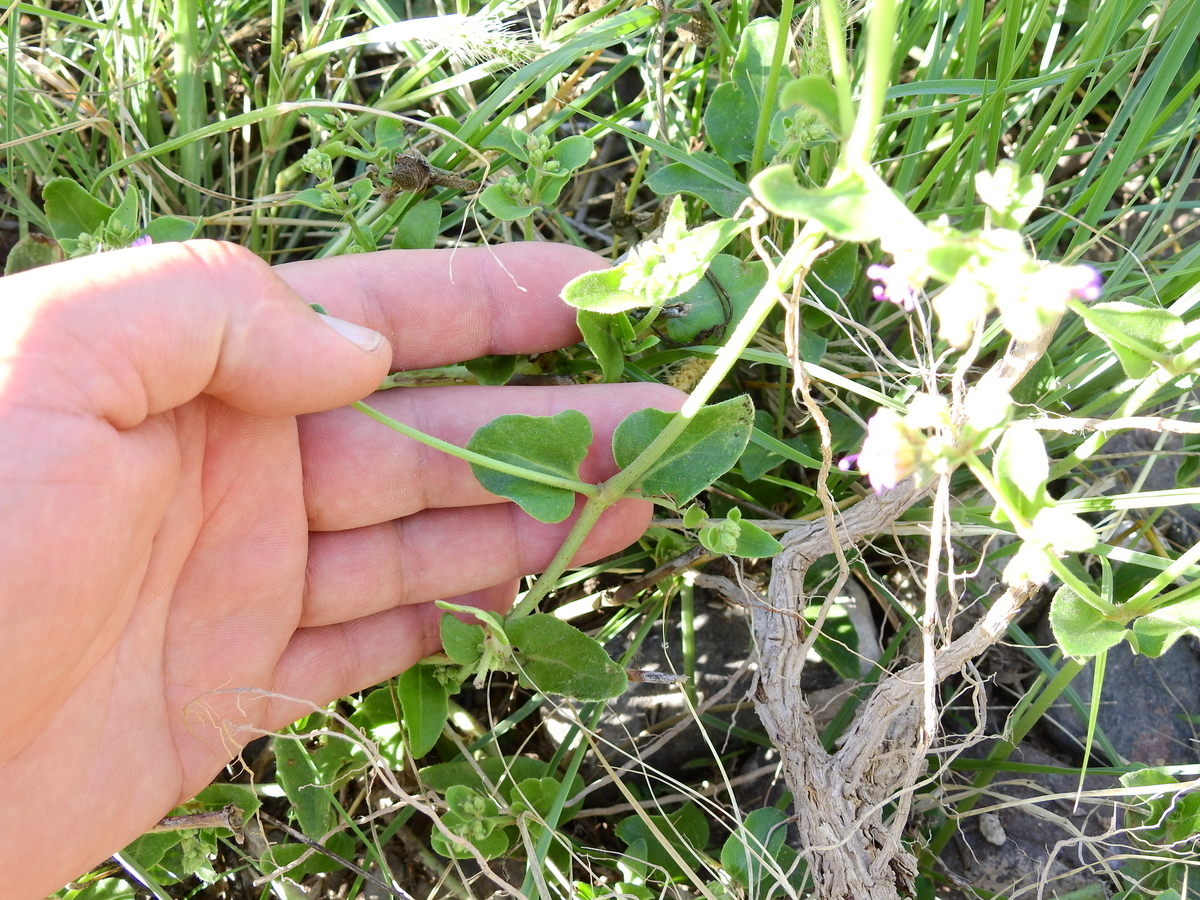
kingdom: Plantae
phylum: Tracheophyta
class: Magnoliopsida
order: Caryophyllales
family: Nyctaginaceae
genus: Mirabilis
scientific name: Mirabilis ovata
